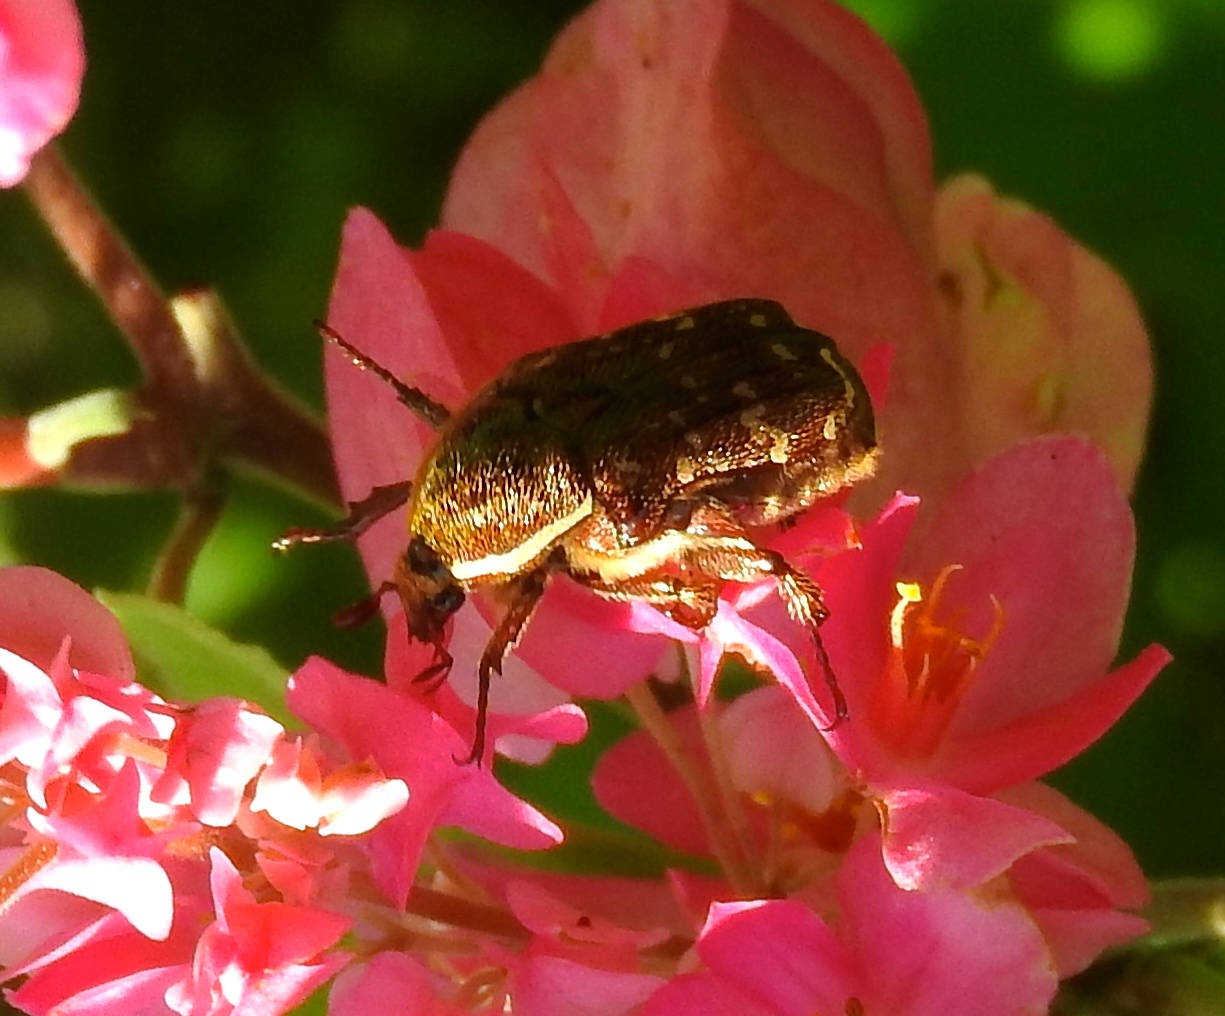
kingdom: Animalia
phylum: Arthropoda
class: Insecta
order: Coleoptera
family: Scarabaeidae
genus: Euphoria
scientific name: Euphoria
